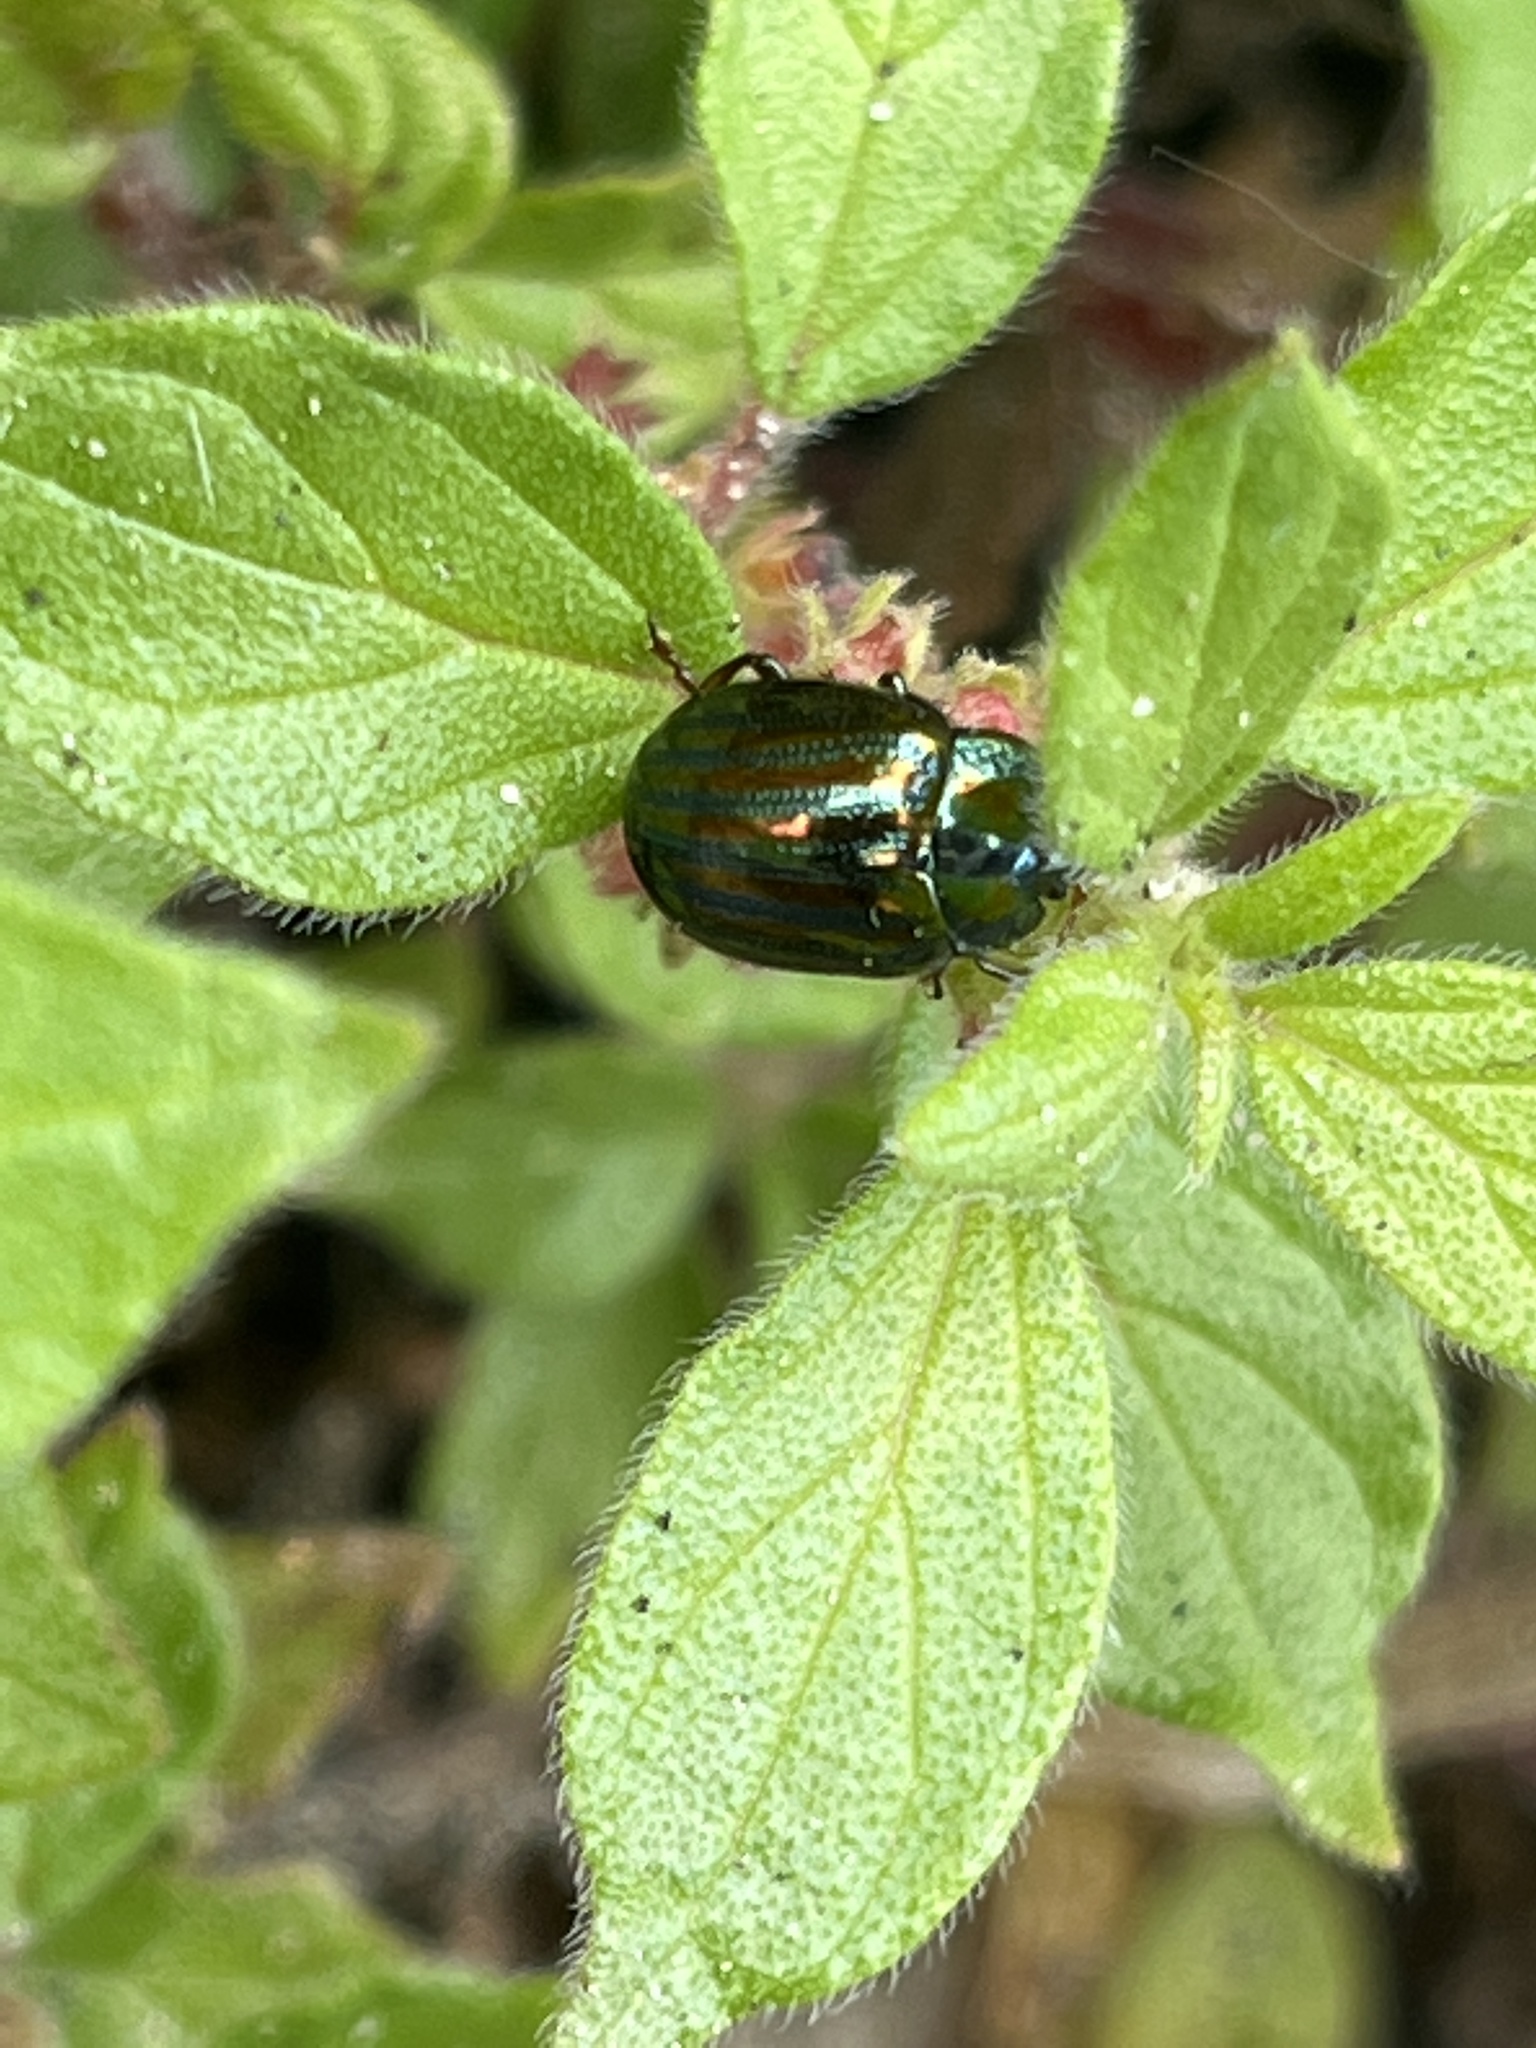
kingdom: Animalia
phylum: Arthropoda
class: Insecta
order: Coleoptera
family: Chrysomelidae
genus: Chrysolina
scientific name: Chrysolina americana
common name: Rosemary beetle
